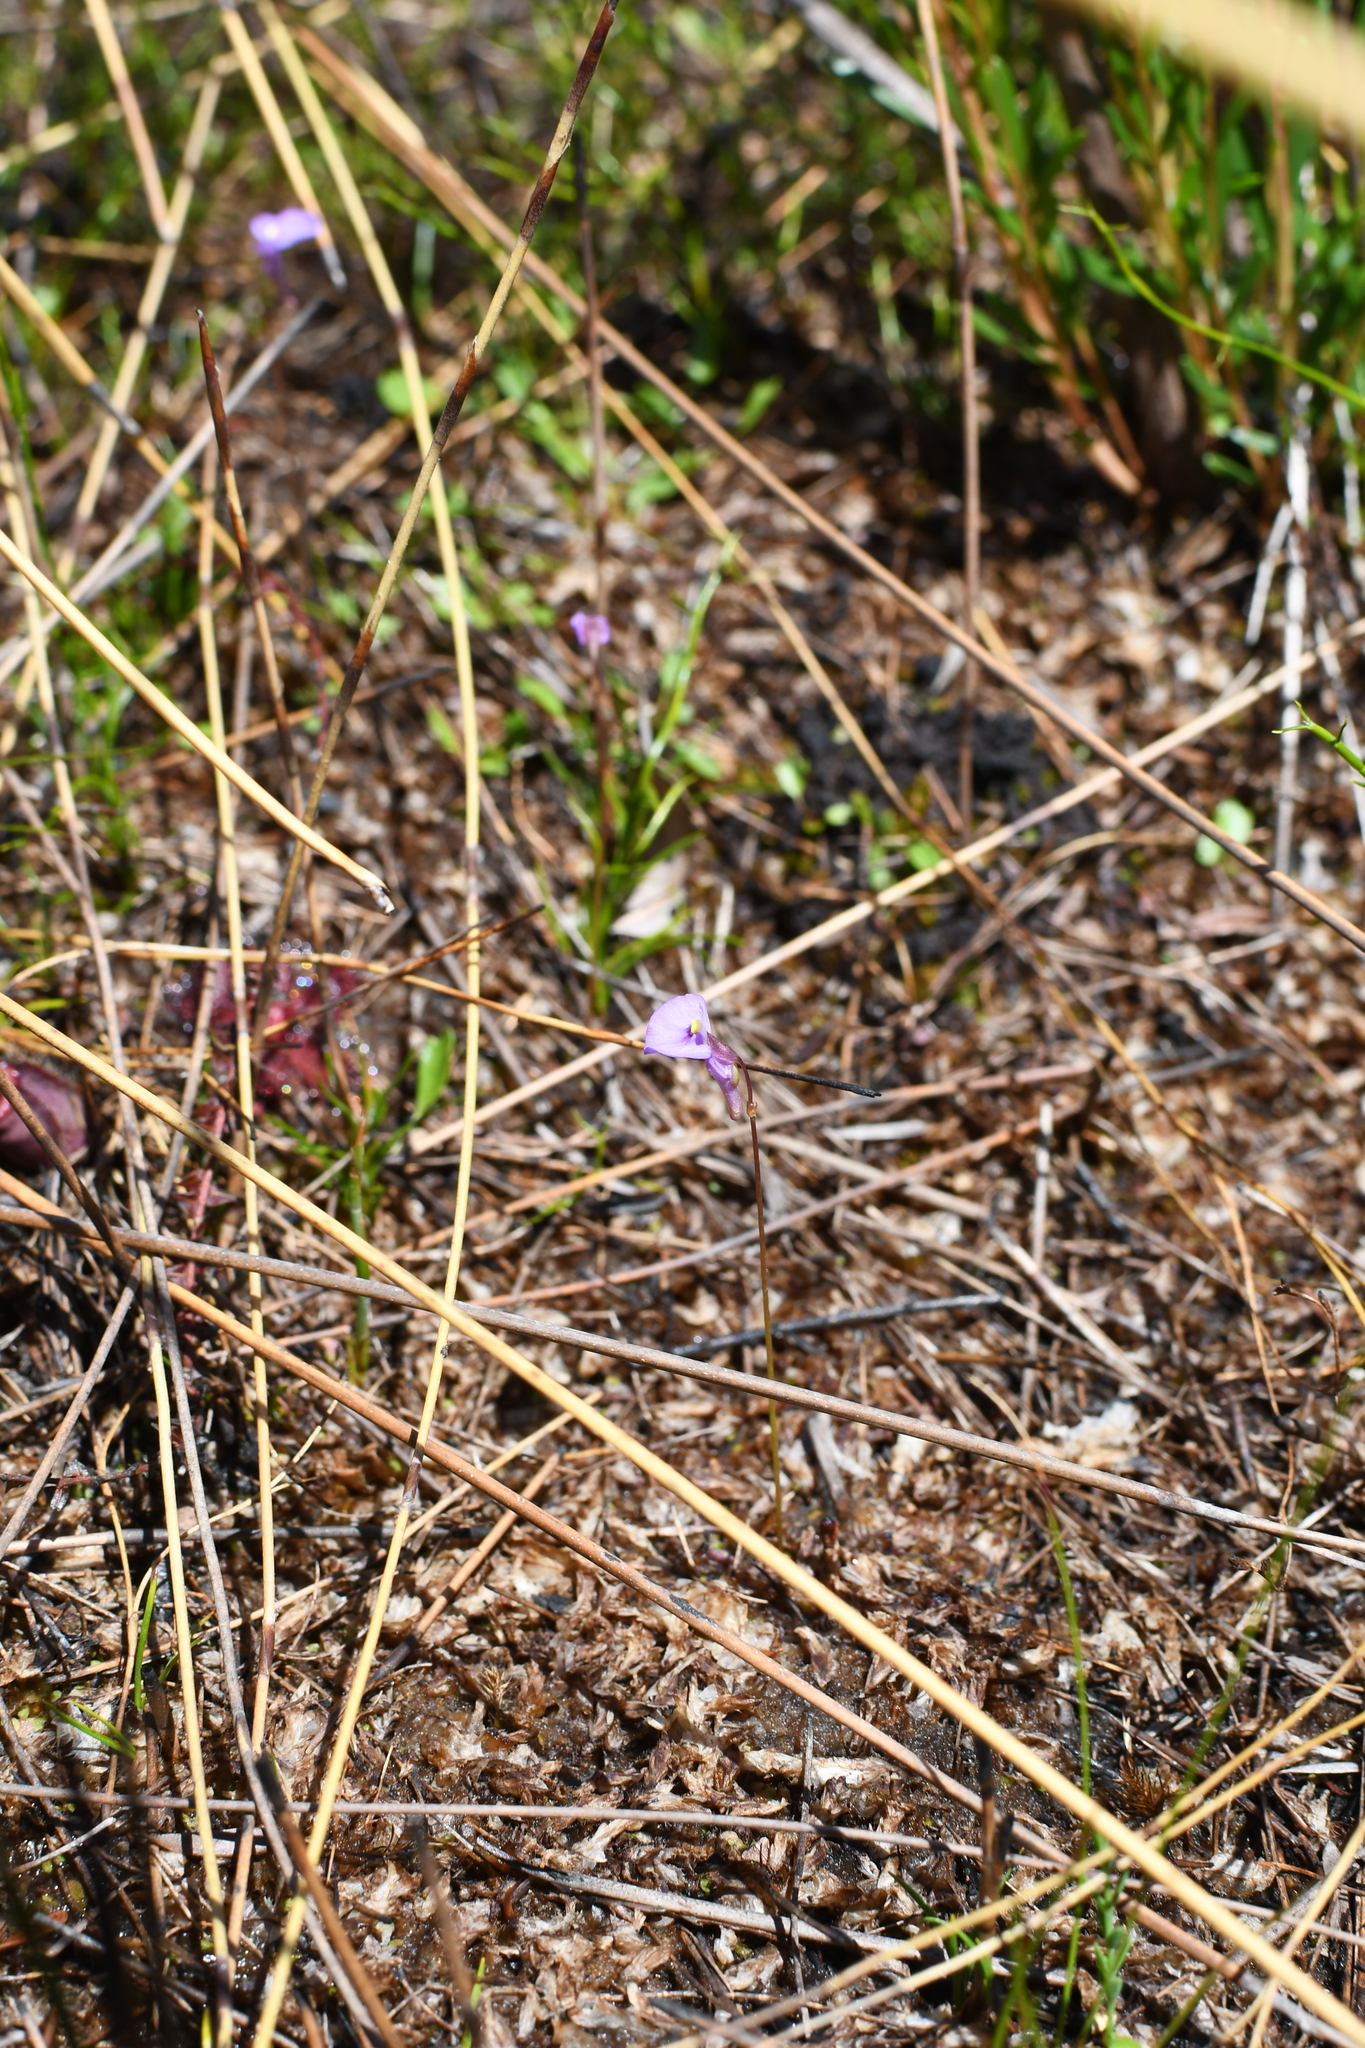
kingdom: Plantae
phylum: Tracheophyta
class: Magnoliopsida
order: Lamiales
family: Lentibulariaceae
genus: Utricularia
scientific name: Utricularia paulineae
